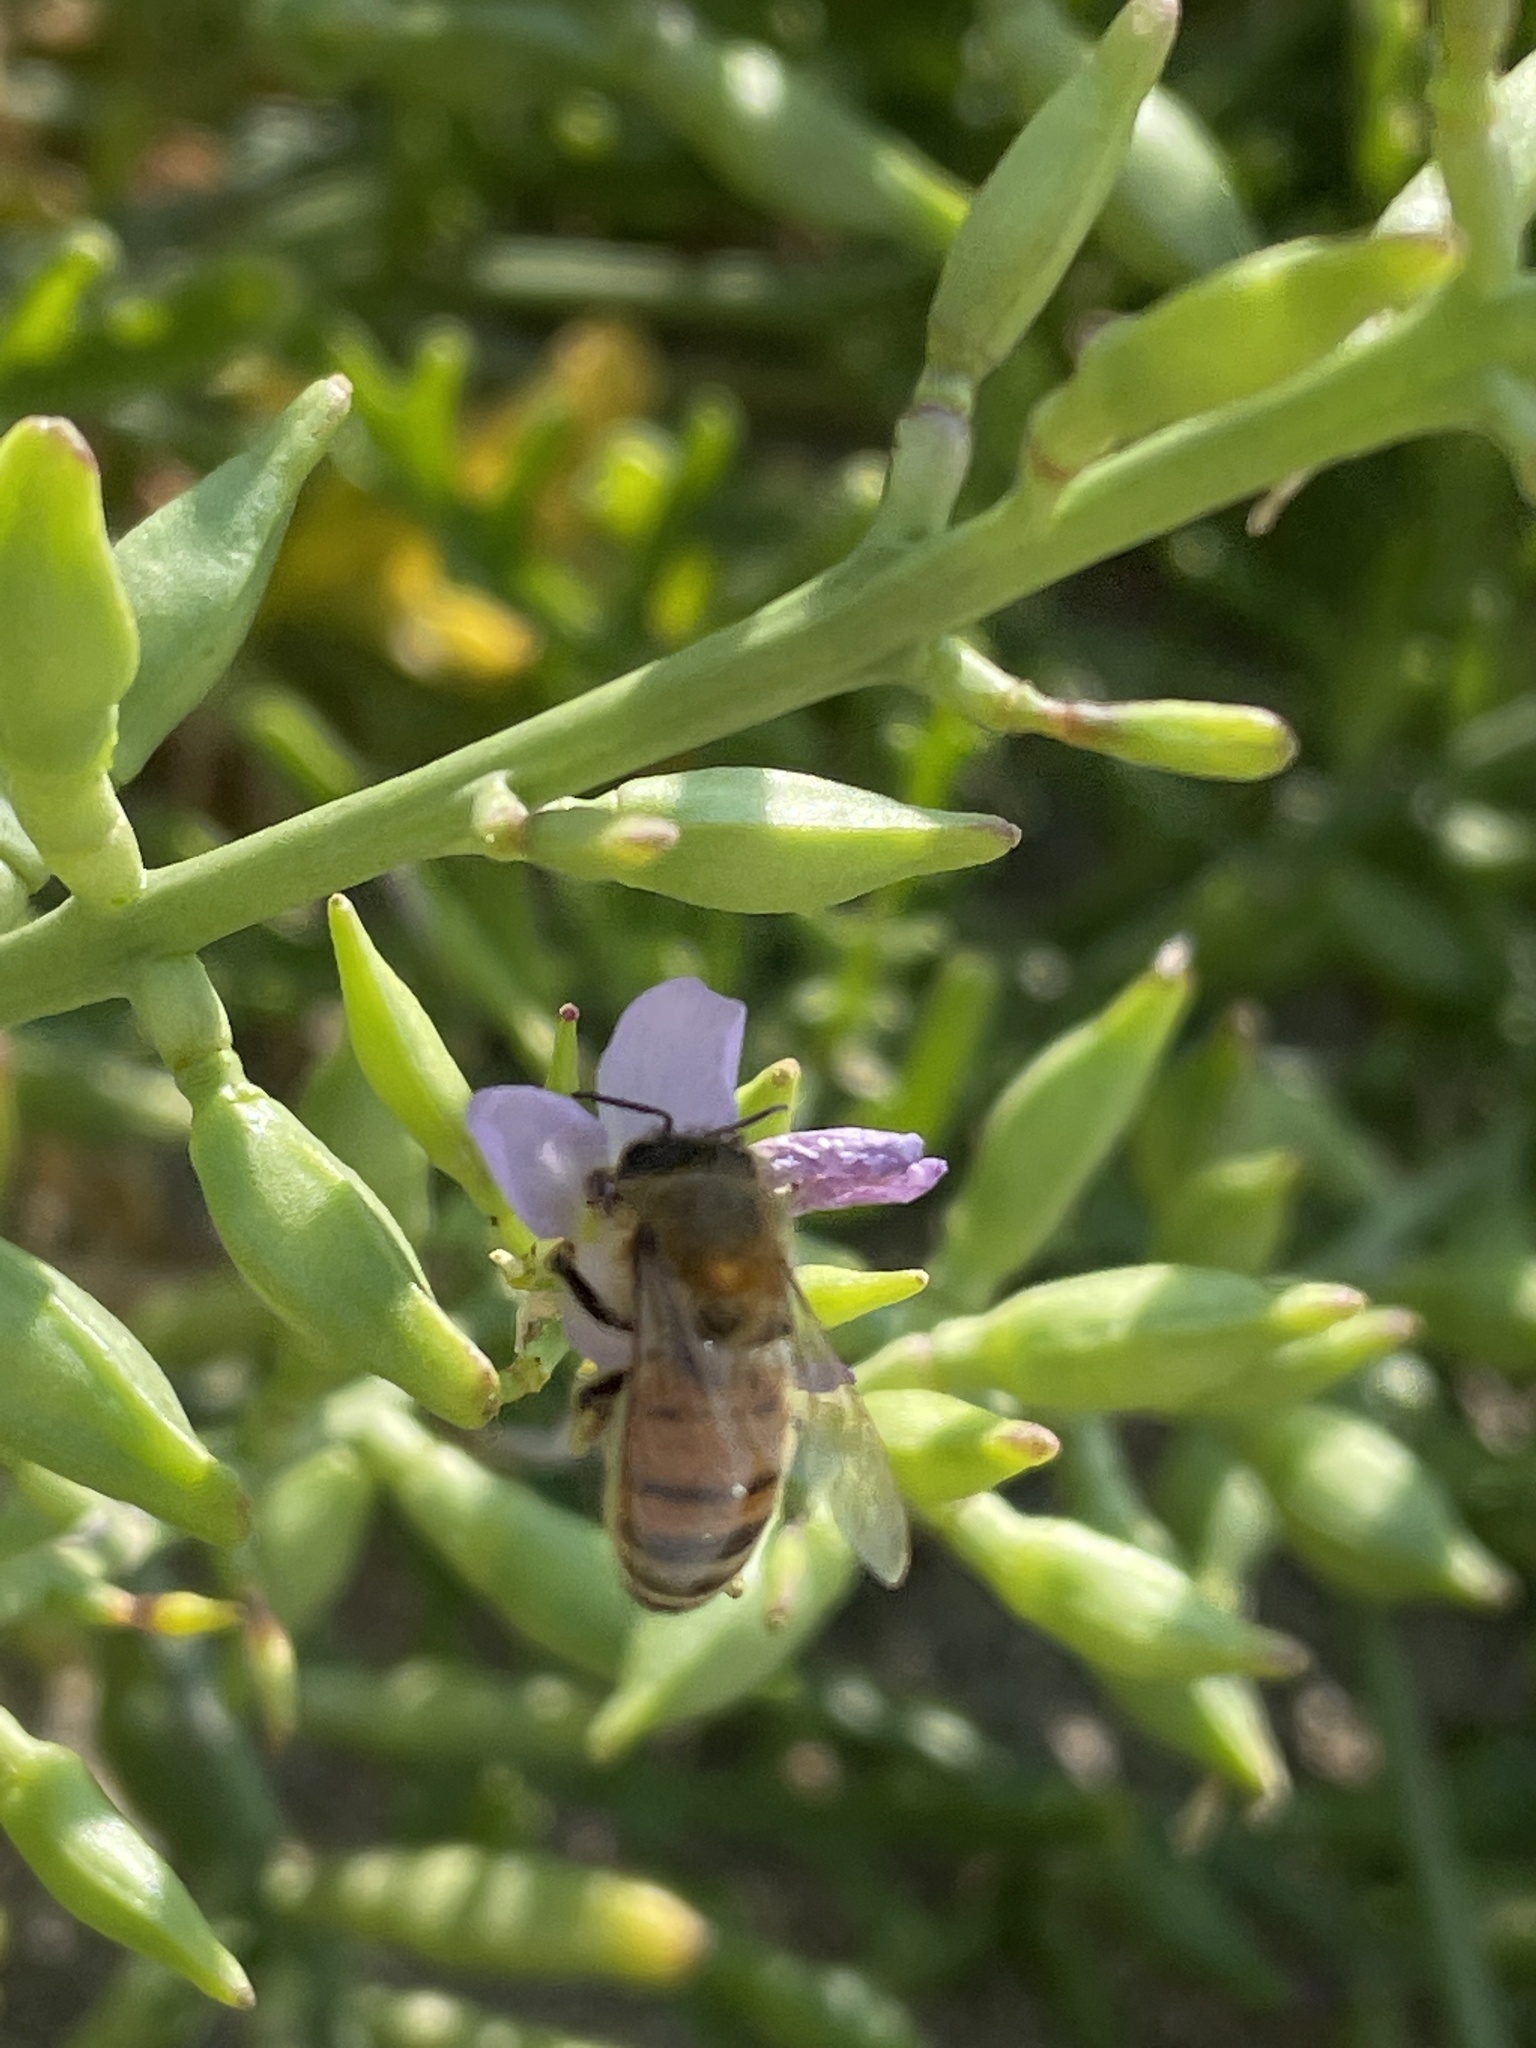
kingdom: Animalia
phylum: Arthropoda
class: Insecta
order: Hymenoptera
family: Apidae
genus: Apis
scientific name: Apis mellifera
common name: Honey bee
